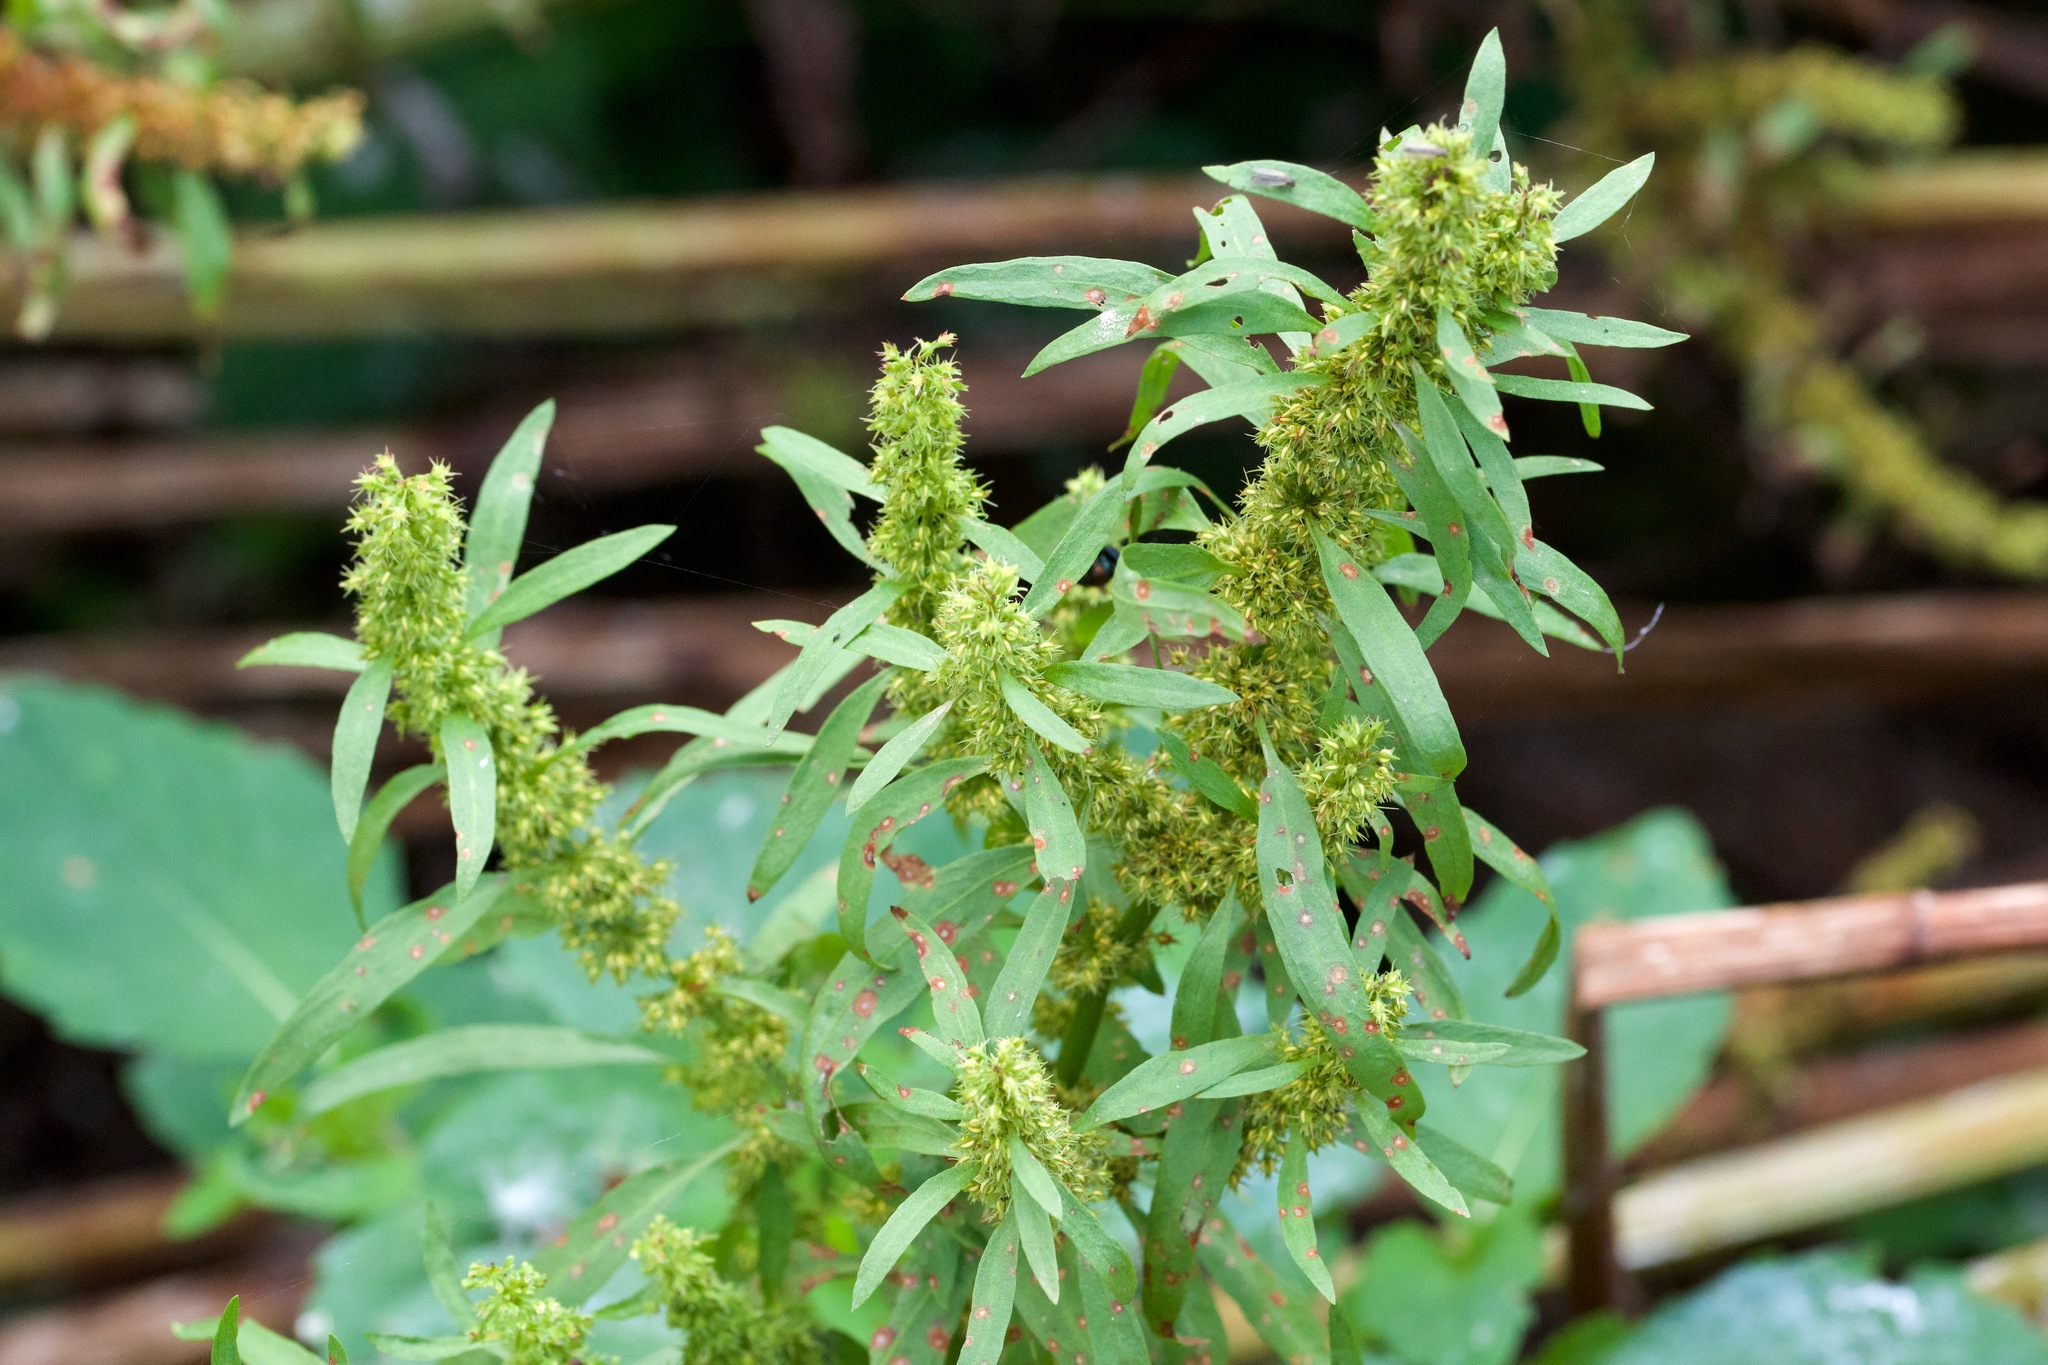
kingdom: Plantae
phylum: Tracheophyta
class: Magnoliopsida
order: Caryophyllales
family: Polygonaceae
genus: Rumex
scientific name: Rumex maritimus
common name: Golden dock
